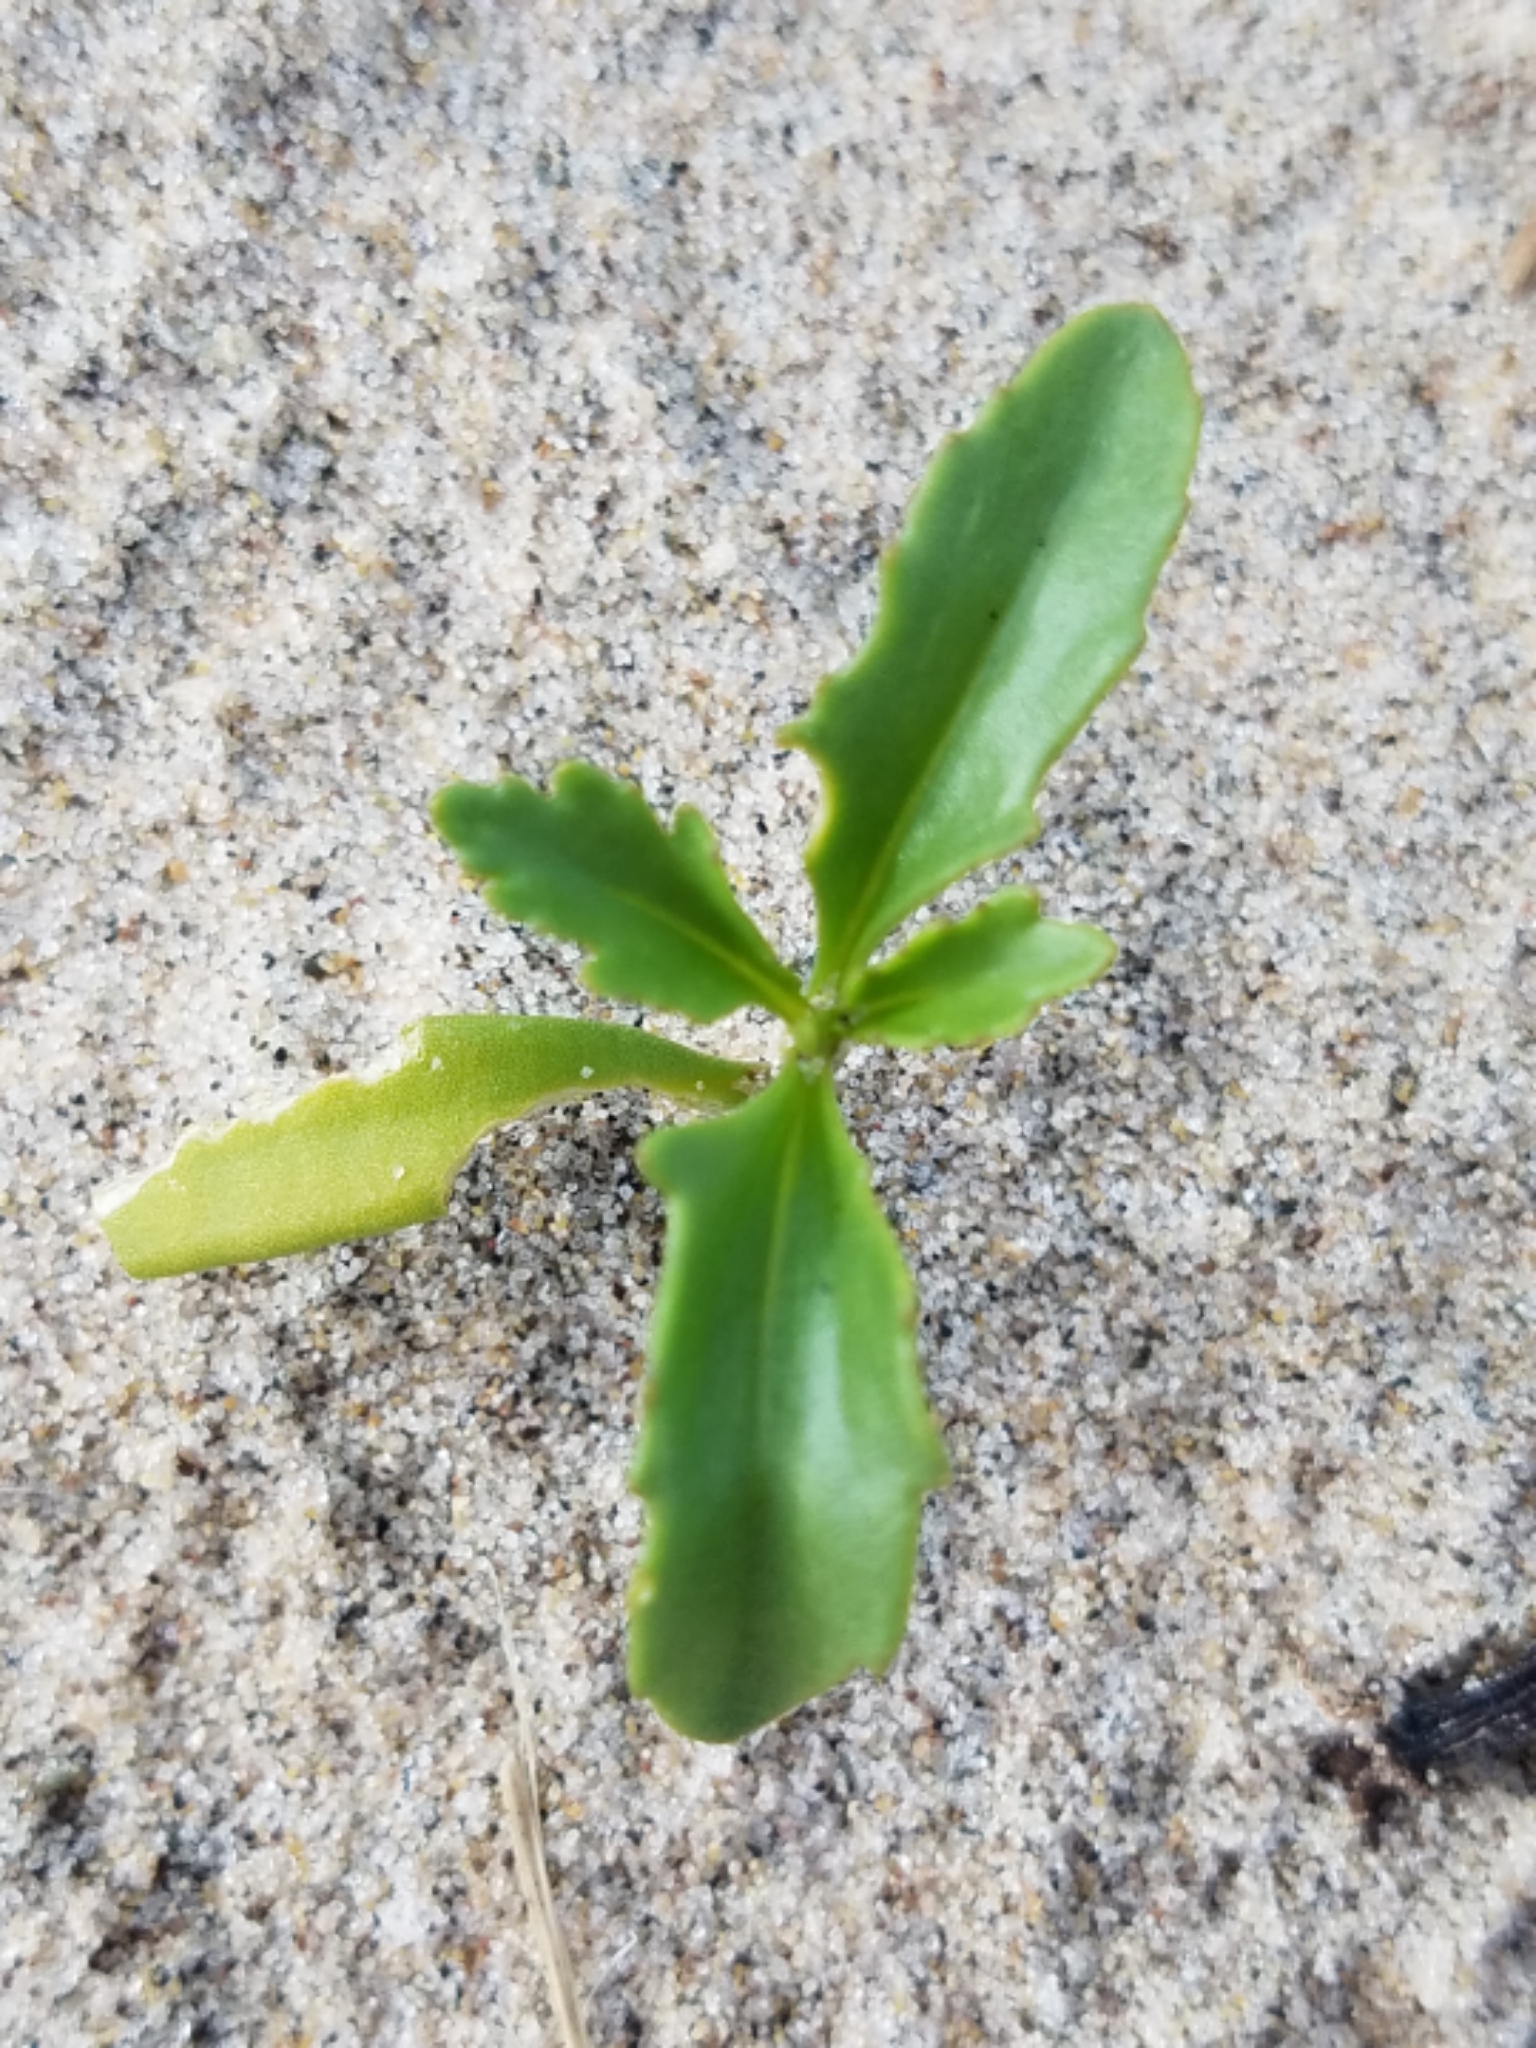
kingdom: Plantae
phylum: Tracheophyta
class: Magnoliopsida
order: Brassicales
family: Brassicaceae
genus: Cakile
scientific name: Cakile edentula
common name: American sea rocket
